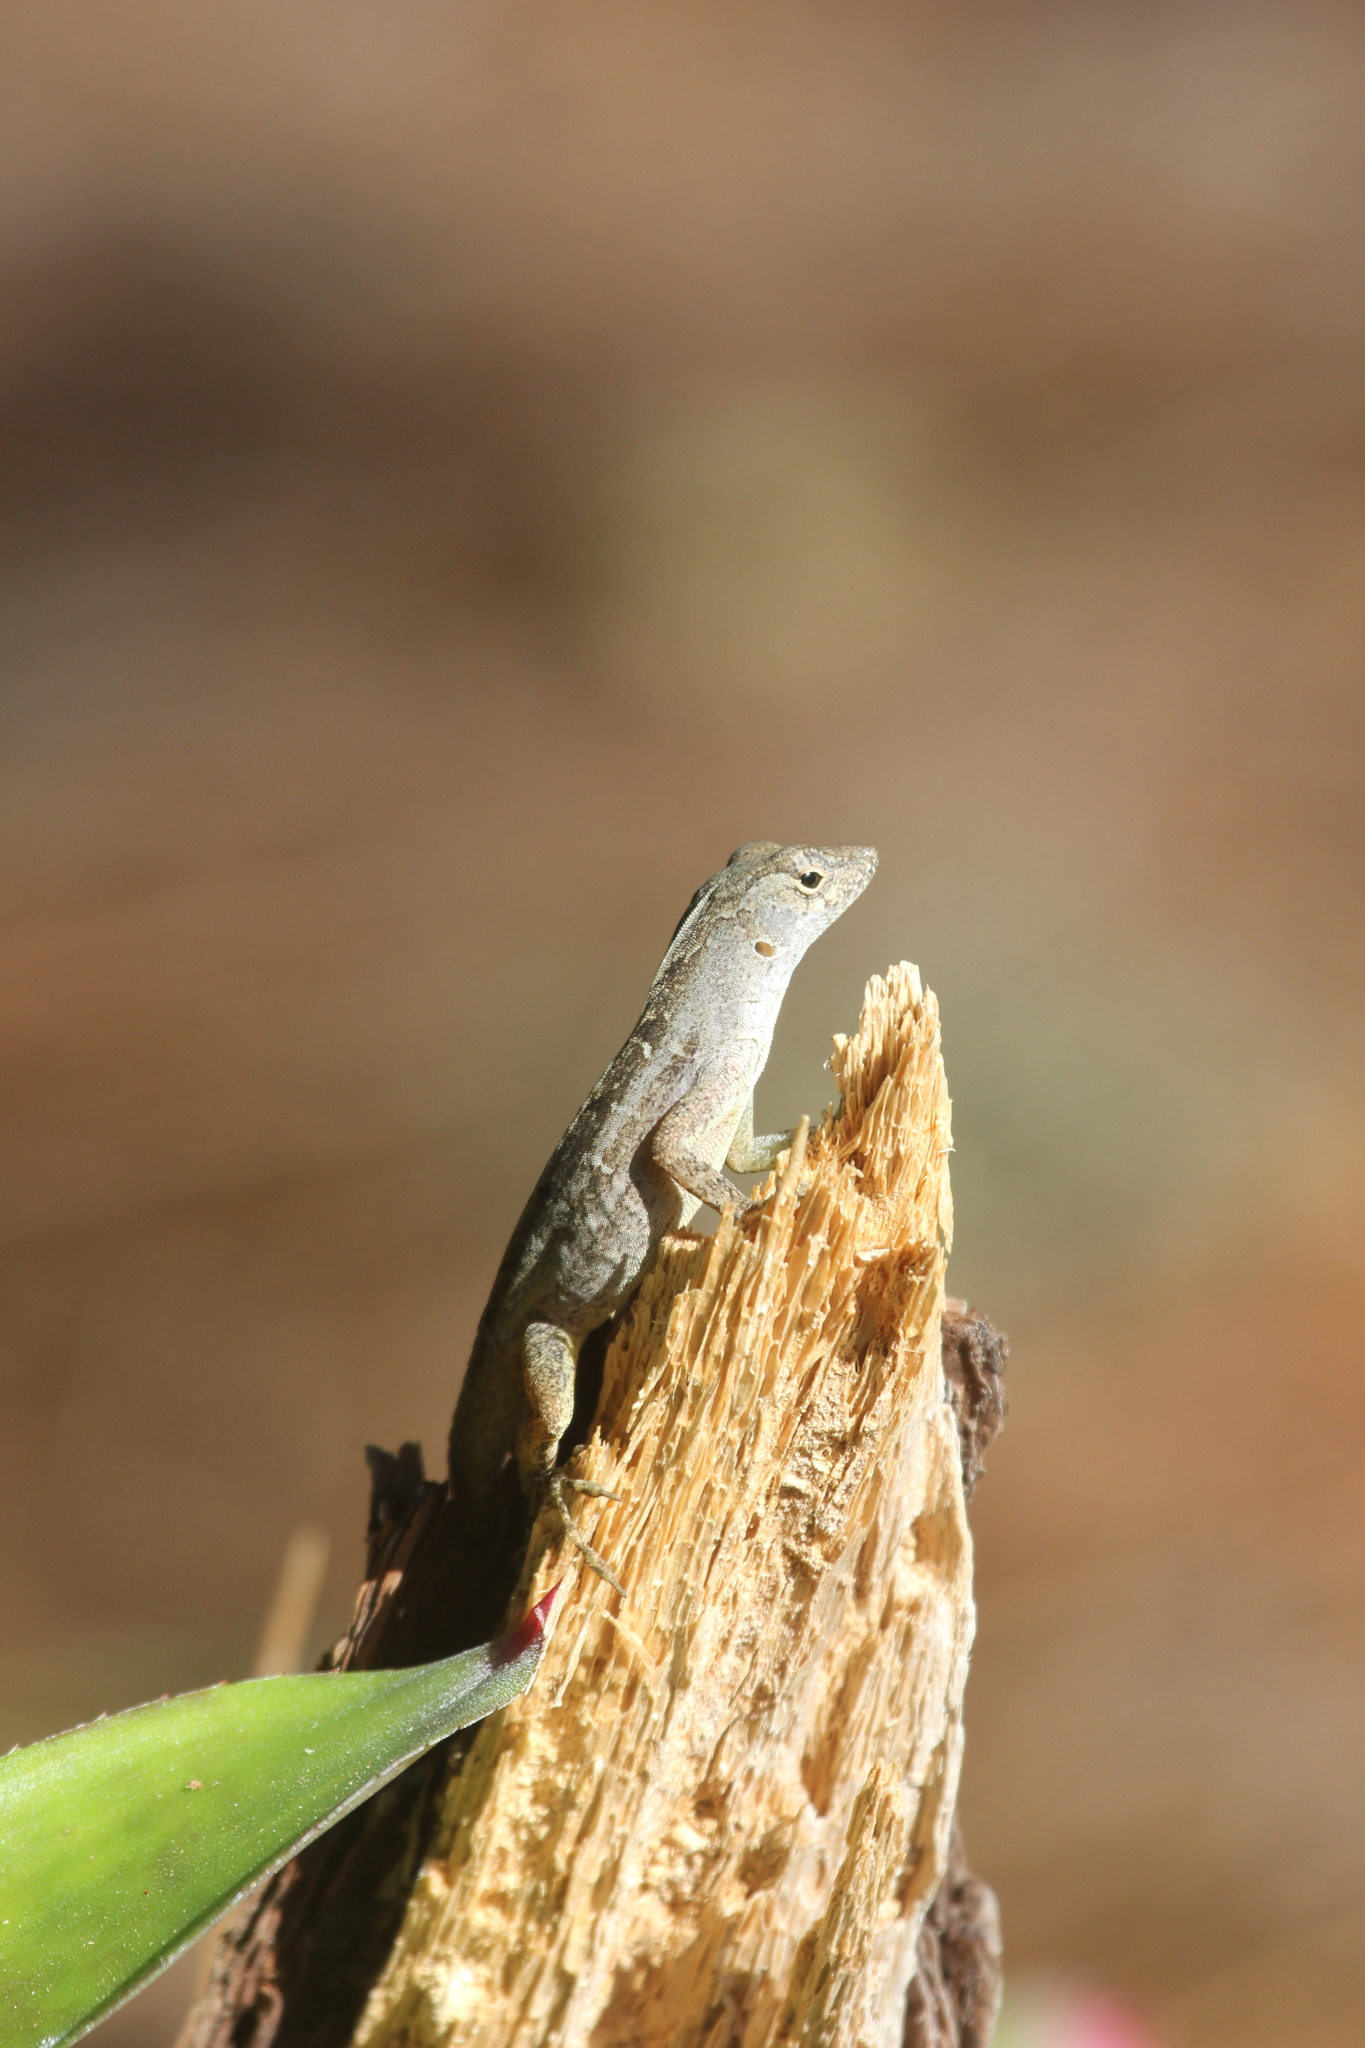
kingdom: Animalia
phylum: Chordata
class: Squamata
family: Dactyloidae
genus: Anolis
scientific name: Anolis sagrei
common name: Brown anole
